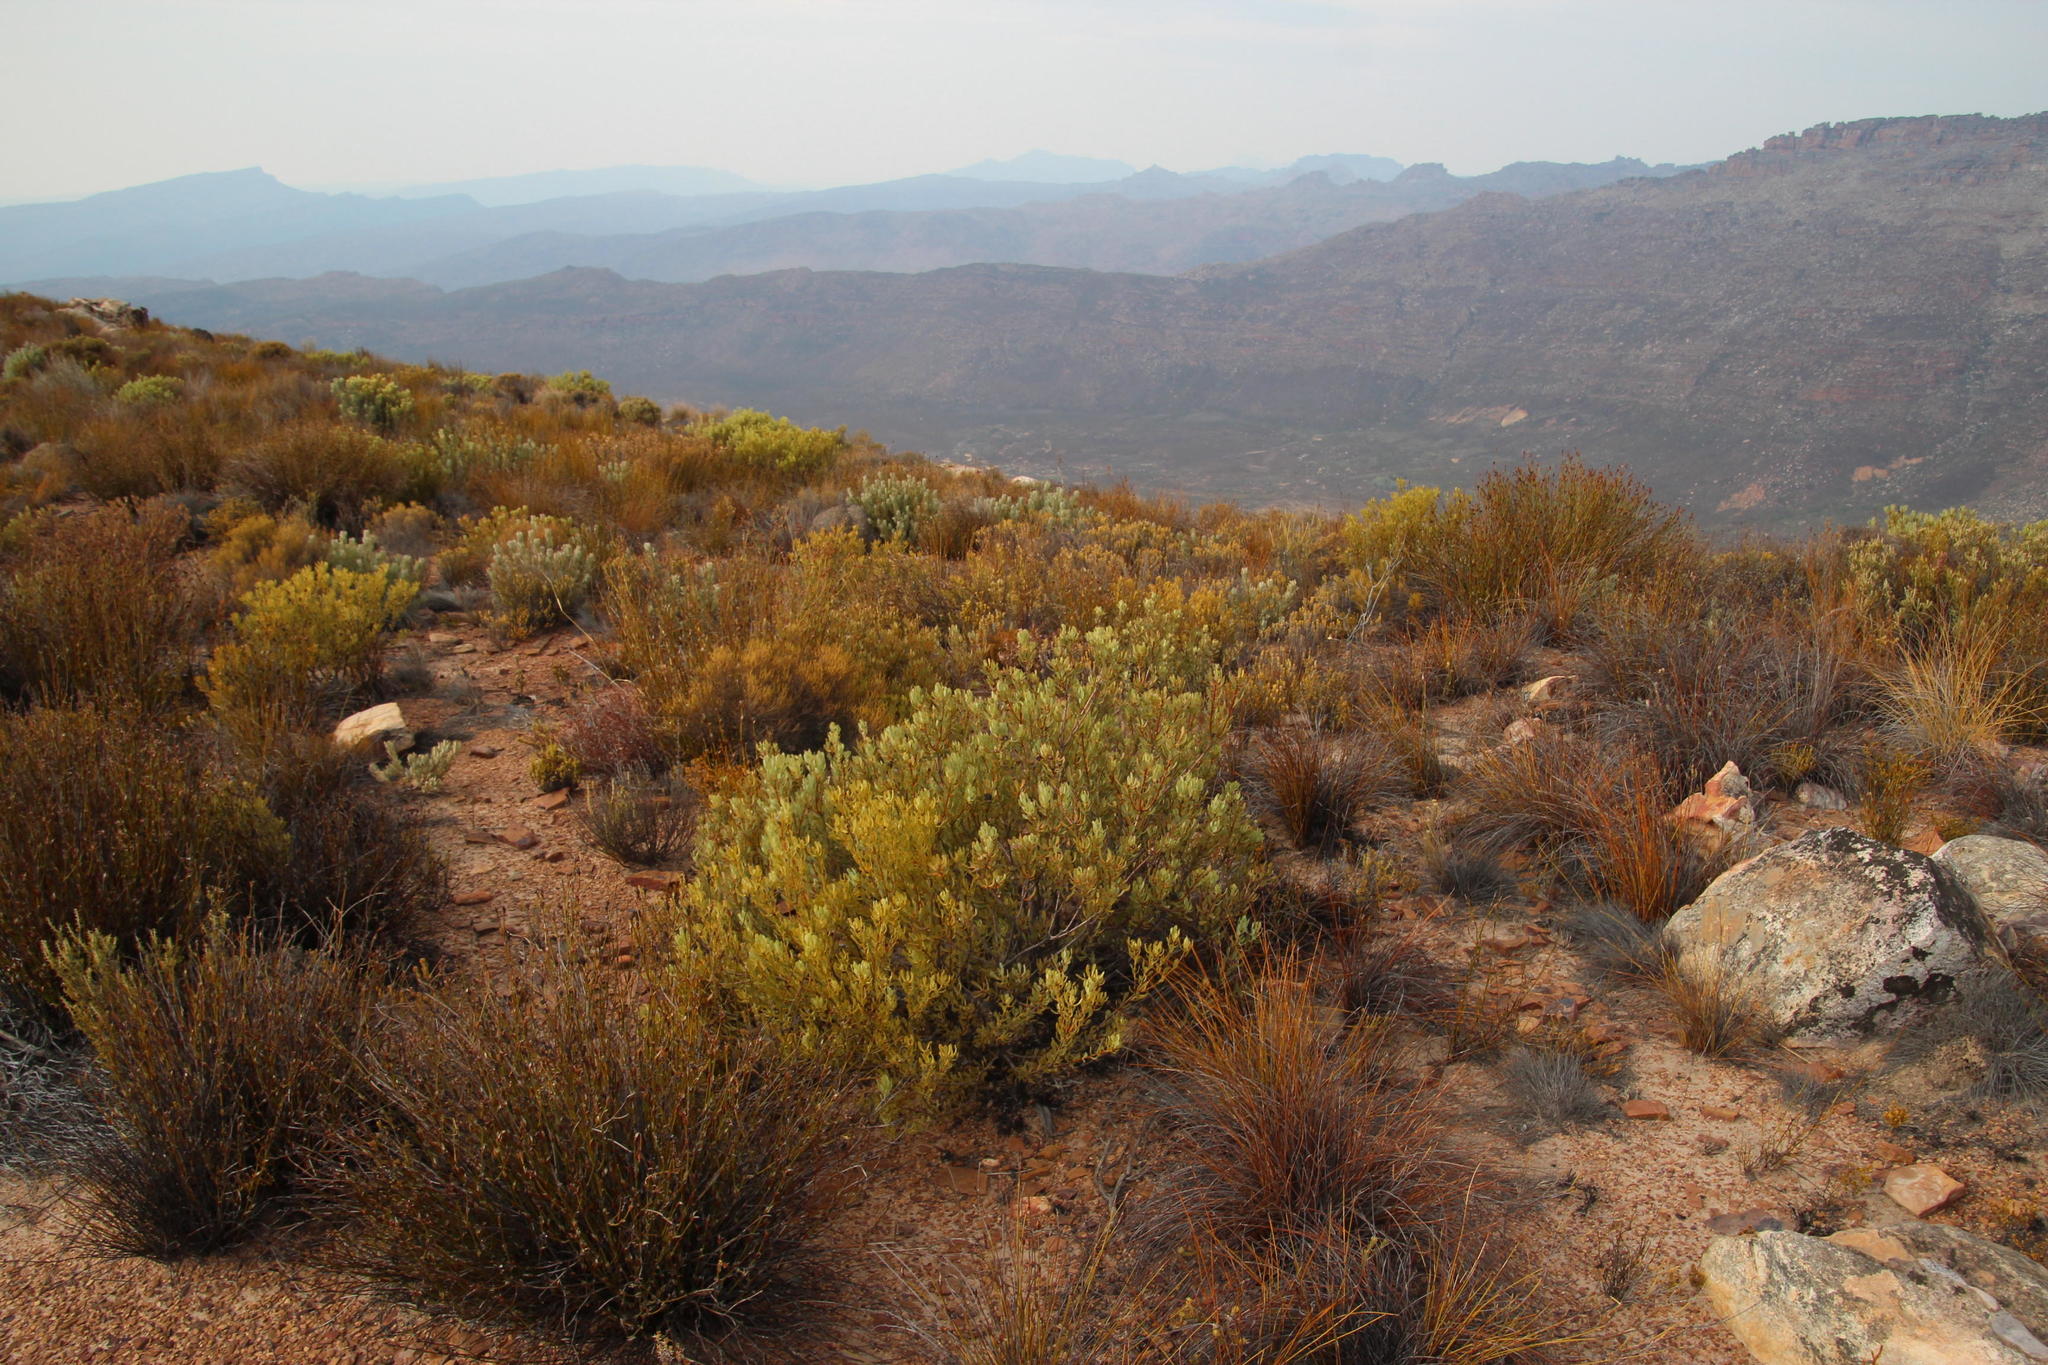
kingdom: Plantae
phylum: Tracheophyta
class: Magnoliopsida
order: Proteales
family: Proteaceae
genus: Leucadendron
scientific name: Leucadendron glaberrimum
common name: Common oily conebush
